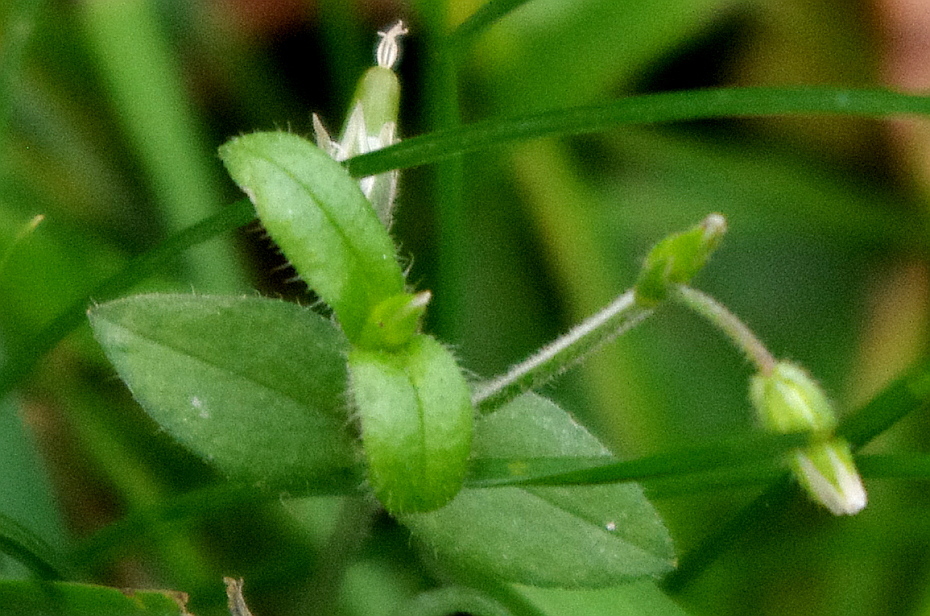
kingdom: Plantae
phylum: Tracheophyta
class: Magnoliopsida
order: Caryophyllales
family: Caryophyllaceae
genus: Cerastium
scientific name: Cerastium holosteoides
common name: Big chickweed
